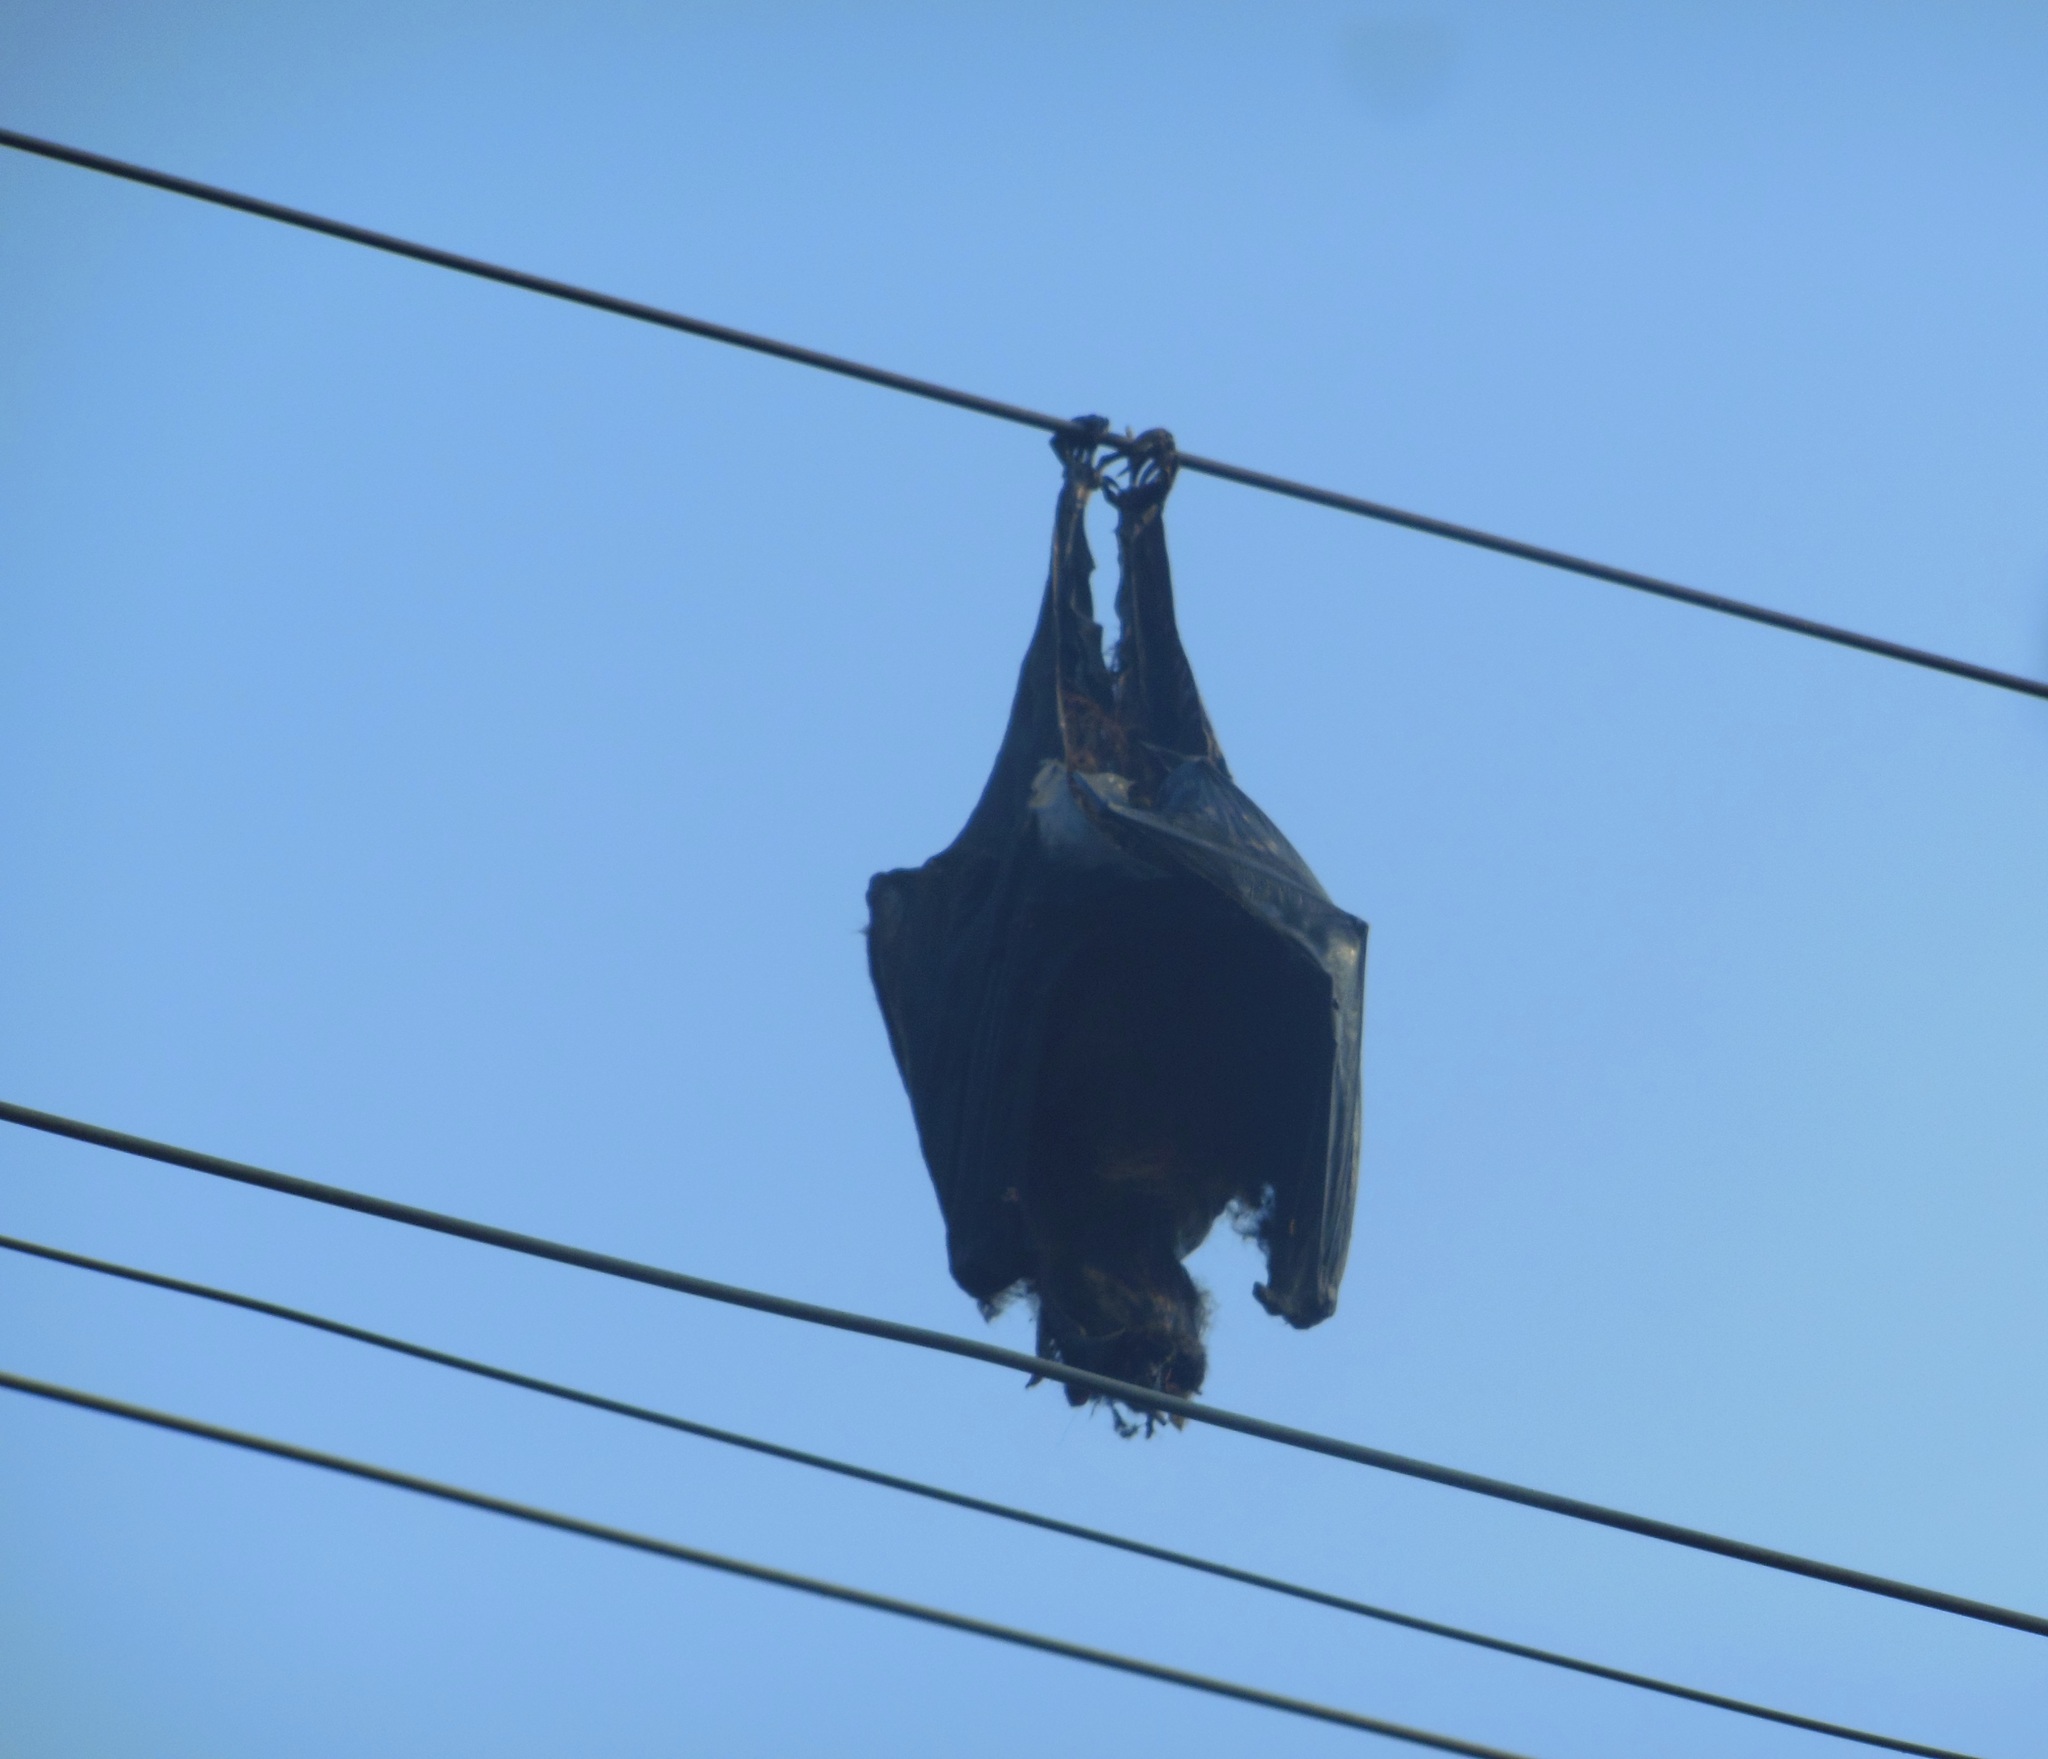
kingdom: Animalia
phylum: Chordata
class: Mammalia
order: Chiroptera
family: Pteropodidae
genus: Pteropus
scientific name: Pteropus vampyrus
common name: Large flying fox
